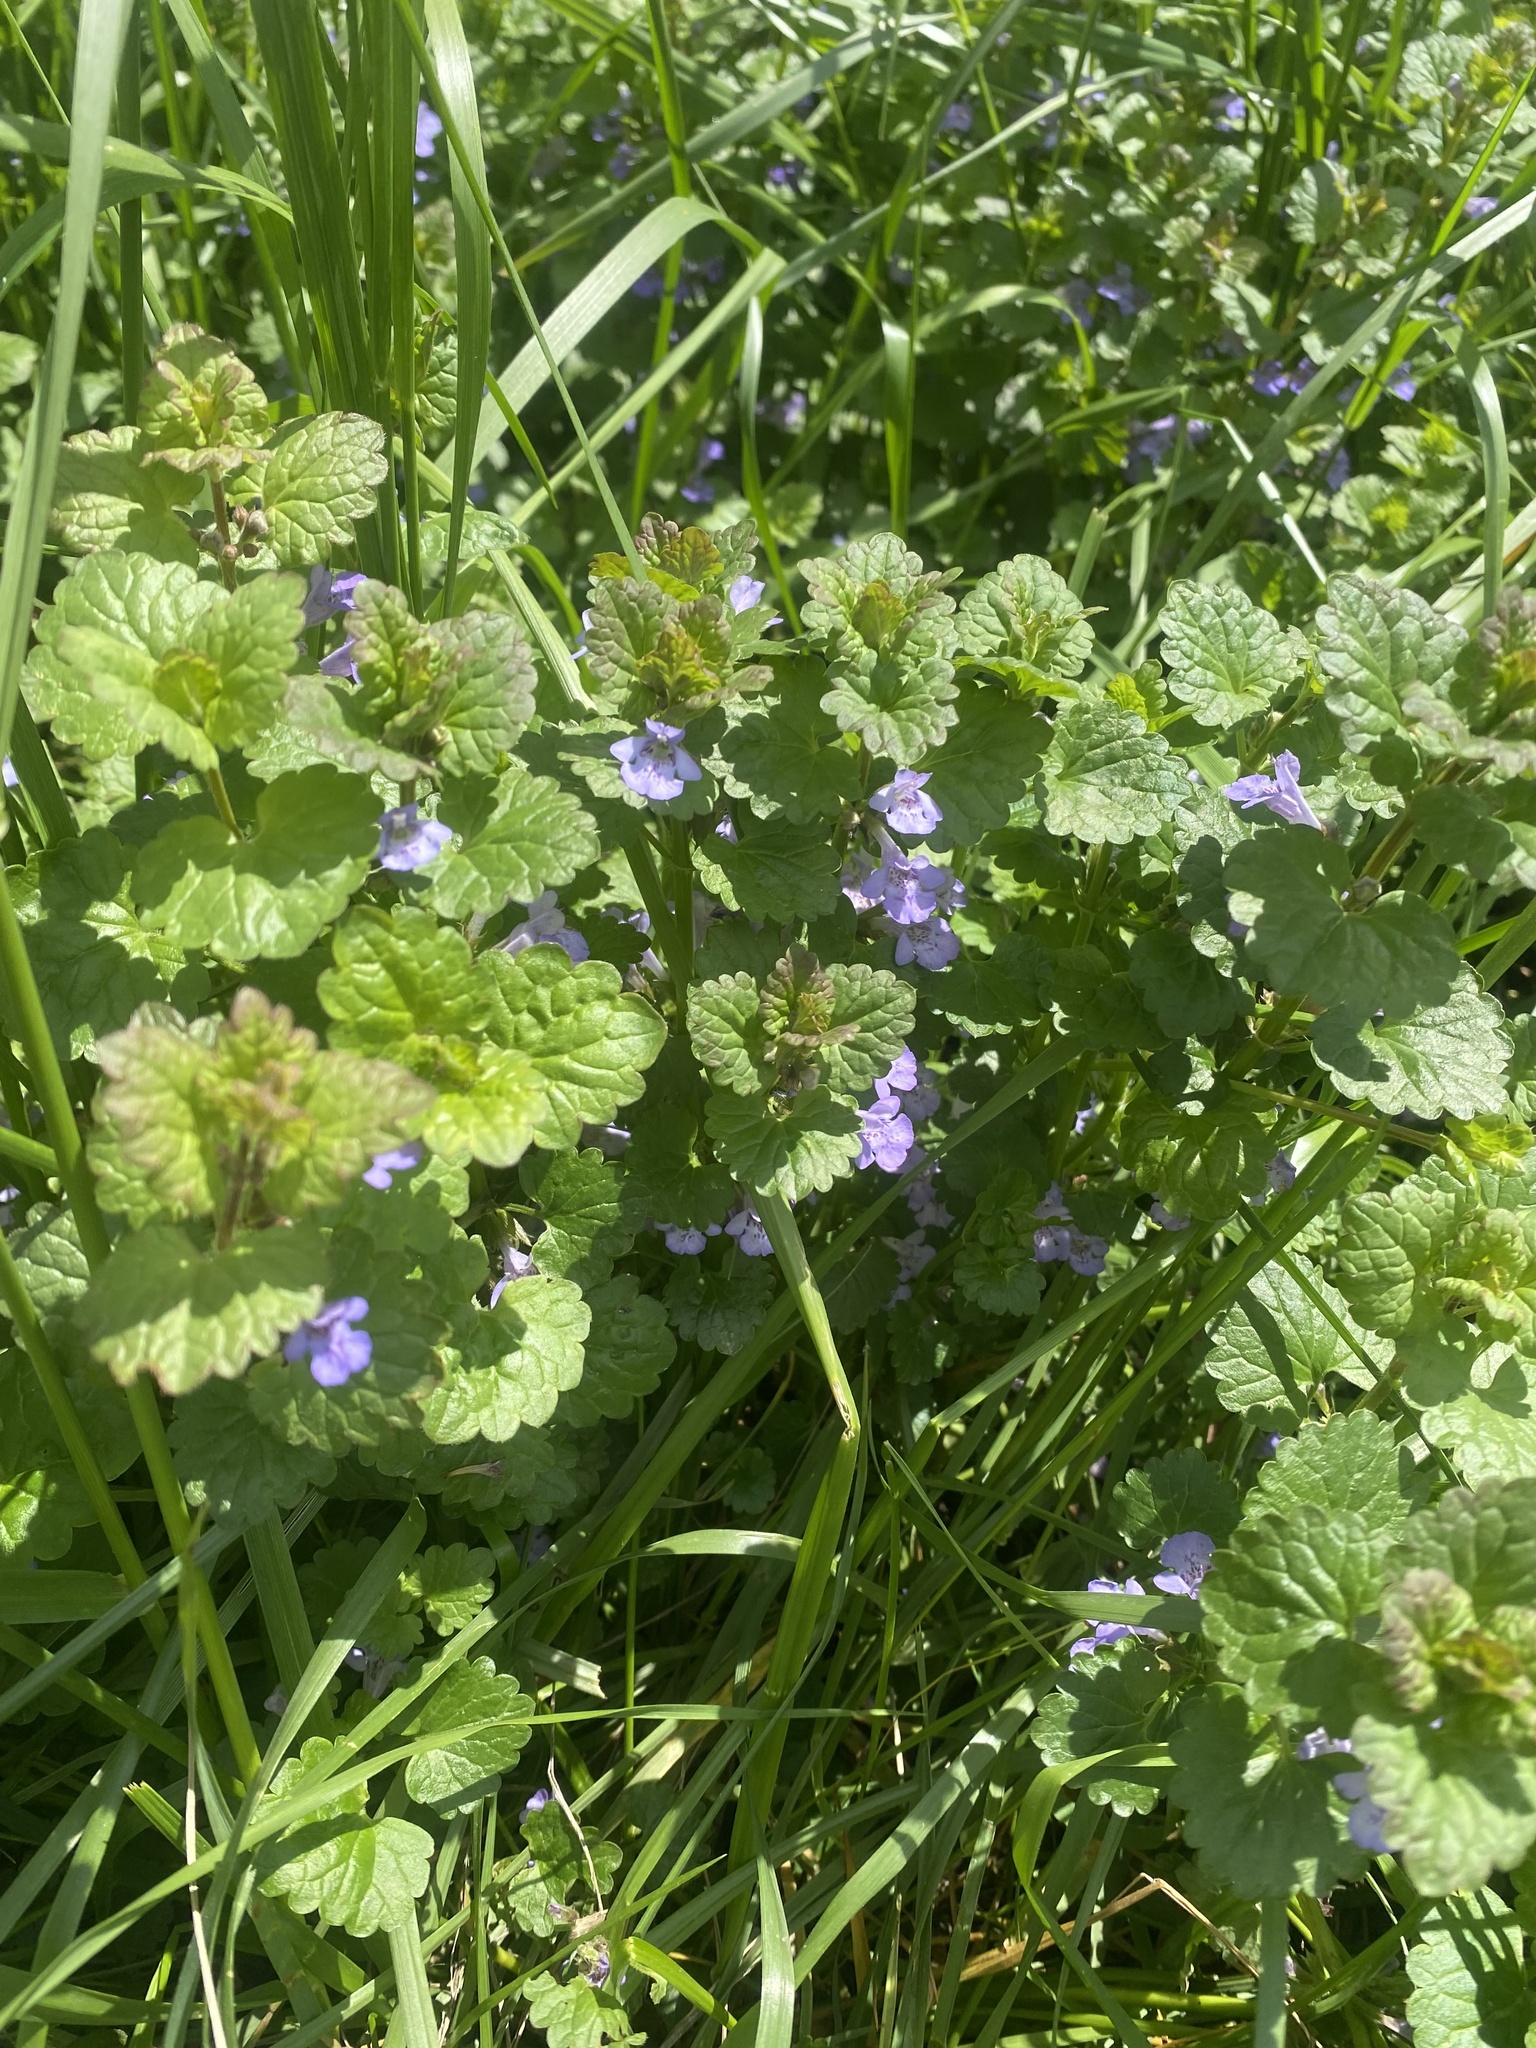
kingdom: Plantae
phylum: Tracheophyta
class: Magnoliopsida
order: Lamiales
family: Lamiaceae
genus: Glechoma
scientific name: Glechoma hederacea
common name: Ground ivy
